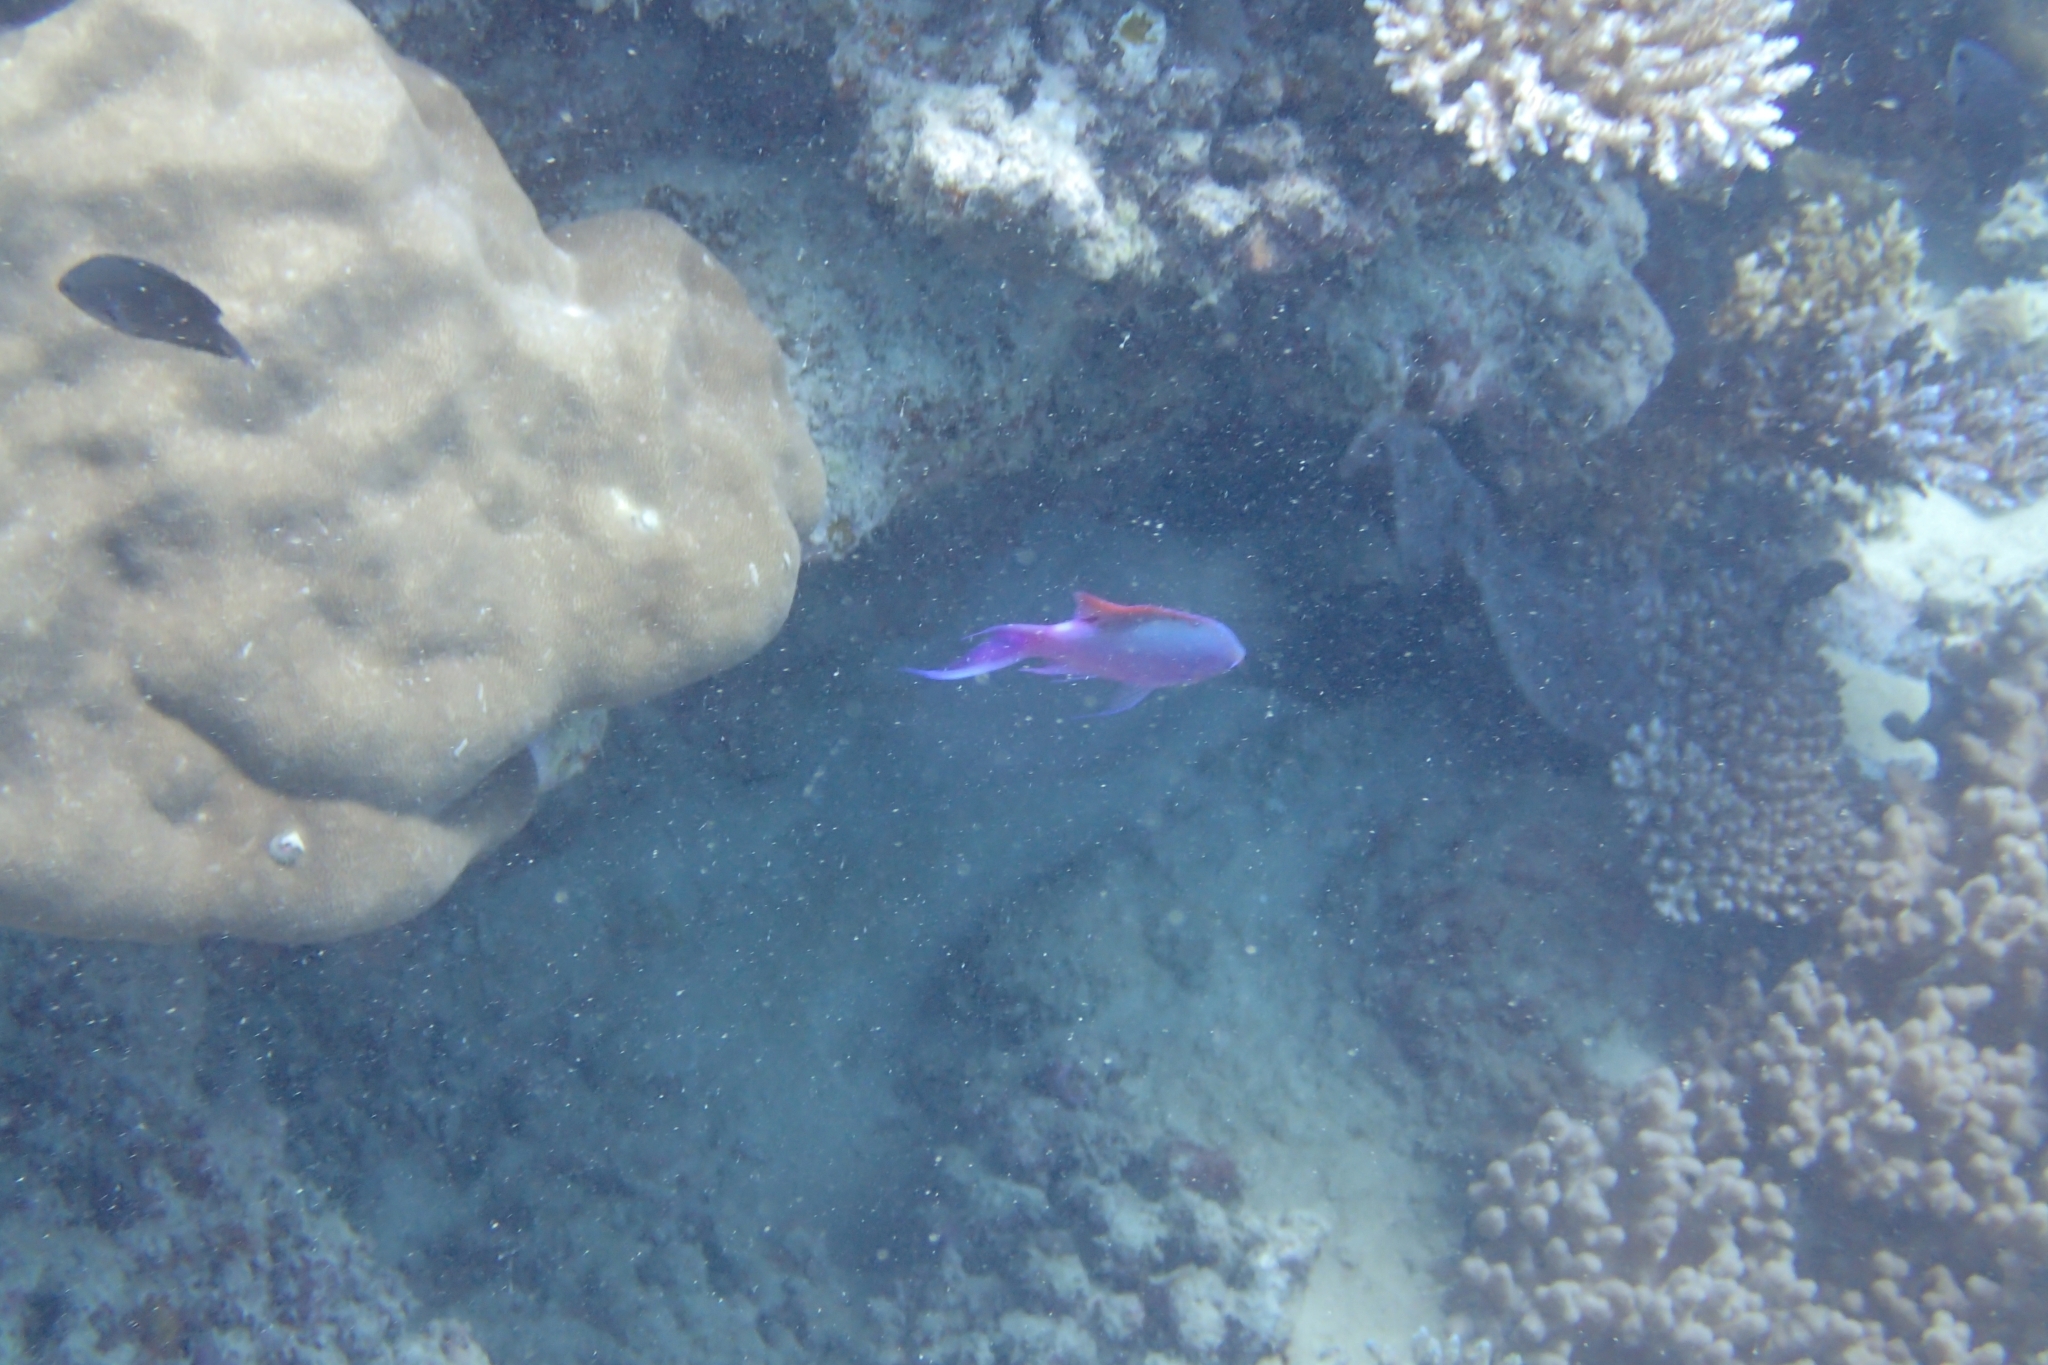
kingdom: Animalia
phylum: Chordata
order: Perciformes
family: Serranidae
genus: Pseudanthias
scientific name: Pseudanthias tuka
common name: Purple queen
